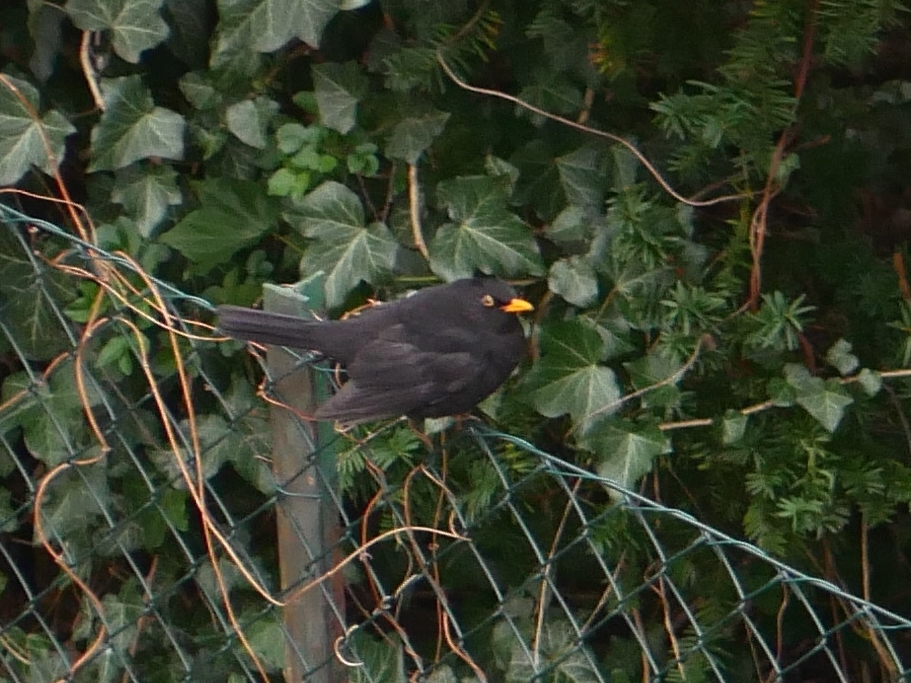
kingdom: Animalia
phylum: Chordata
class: Aves
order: Passeriformes
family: Turdidae
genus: Turdus
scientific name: Turdus merula
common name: Common blackbird
